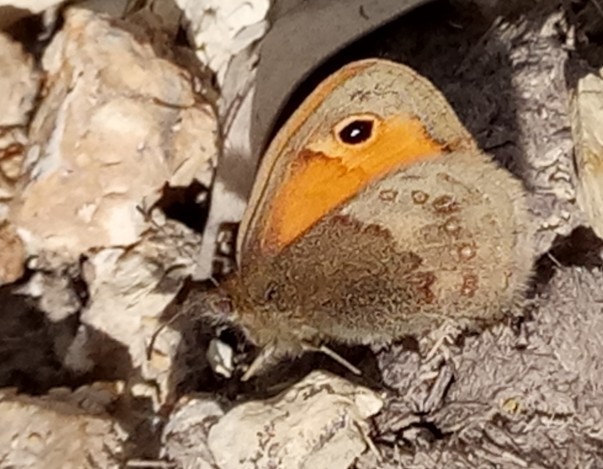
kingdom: Animalia
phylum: Arthropoda
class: Insecta
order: Lepidoptera
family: Nymphalidae
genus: Coenonympha
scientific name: Coenonympha pamphilus
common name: Small heath
